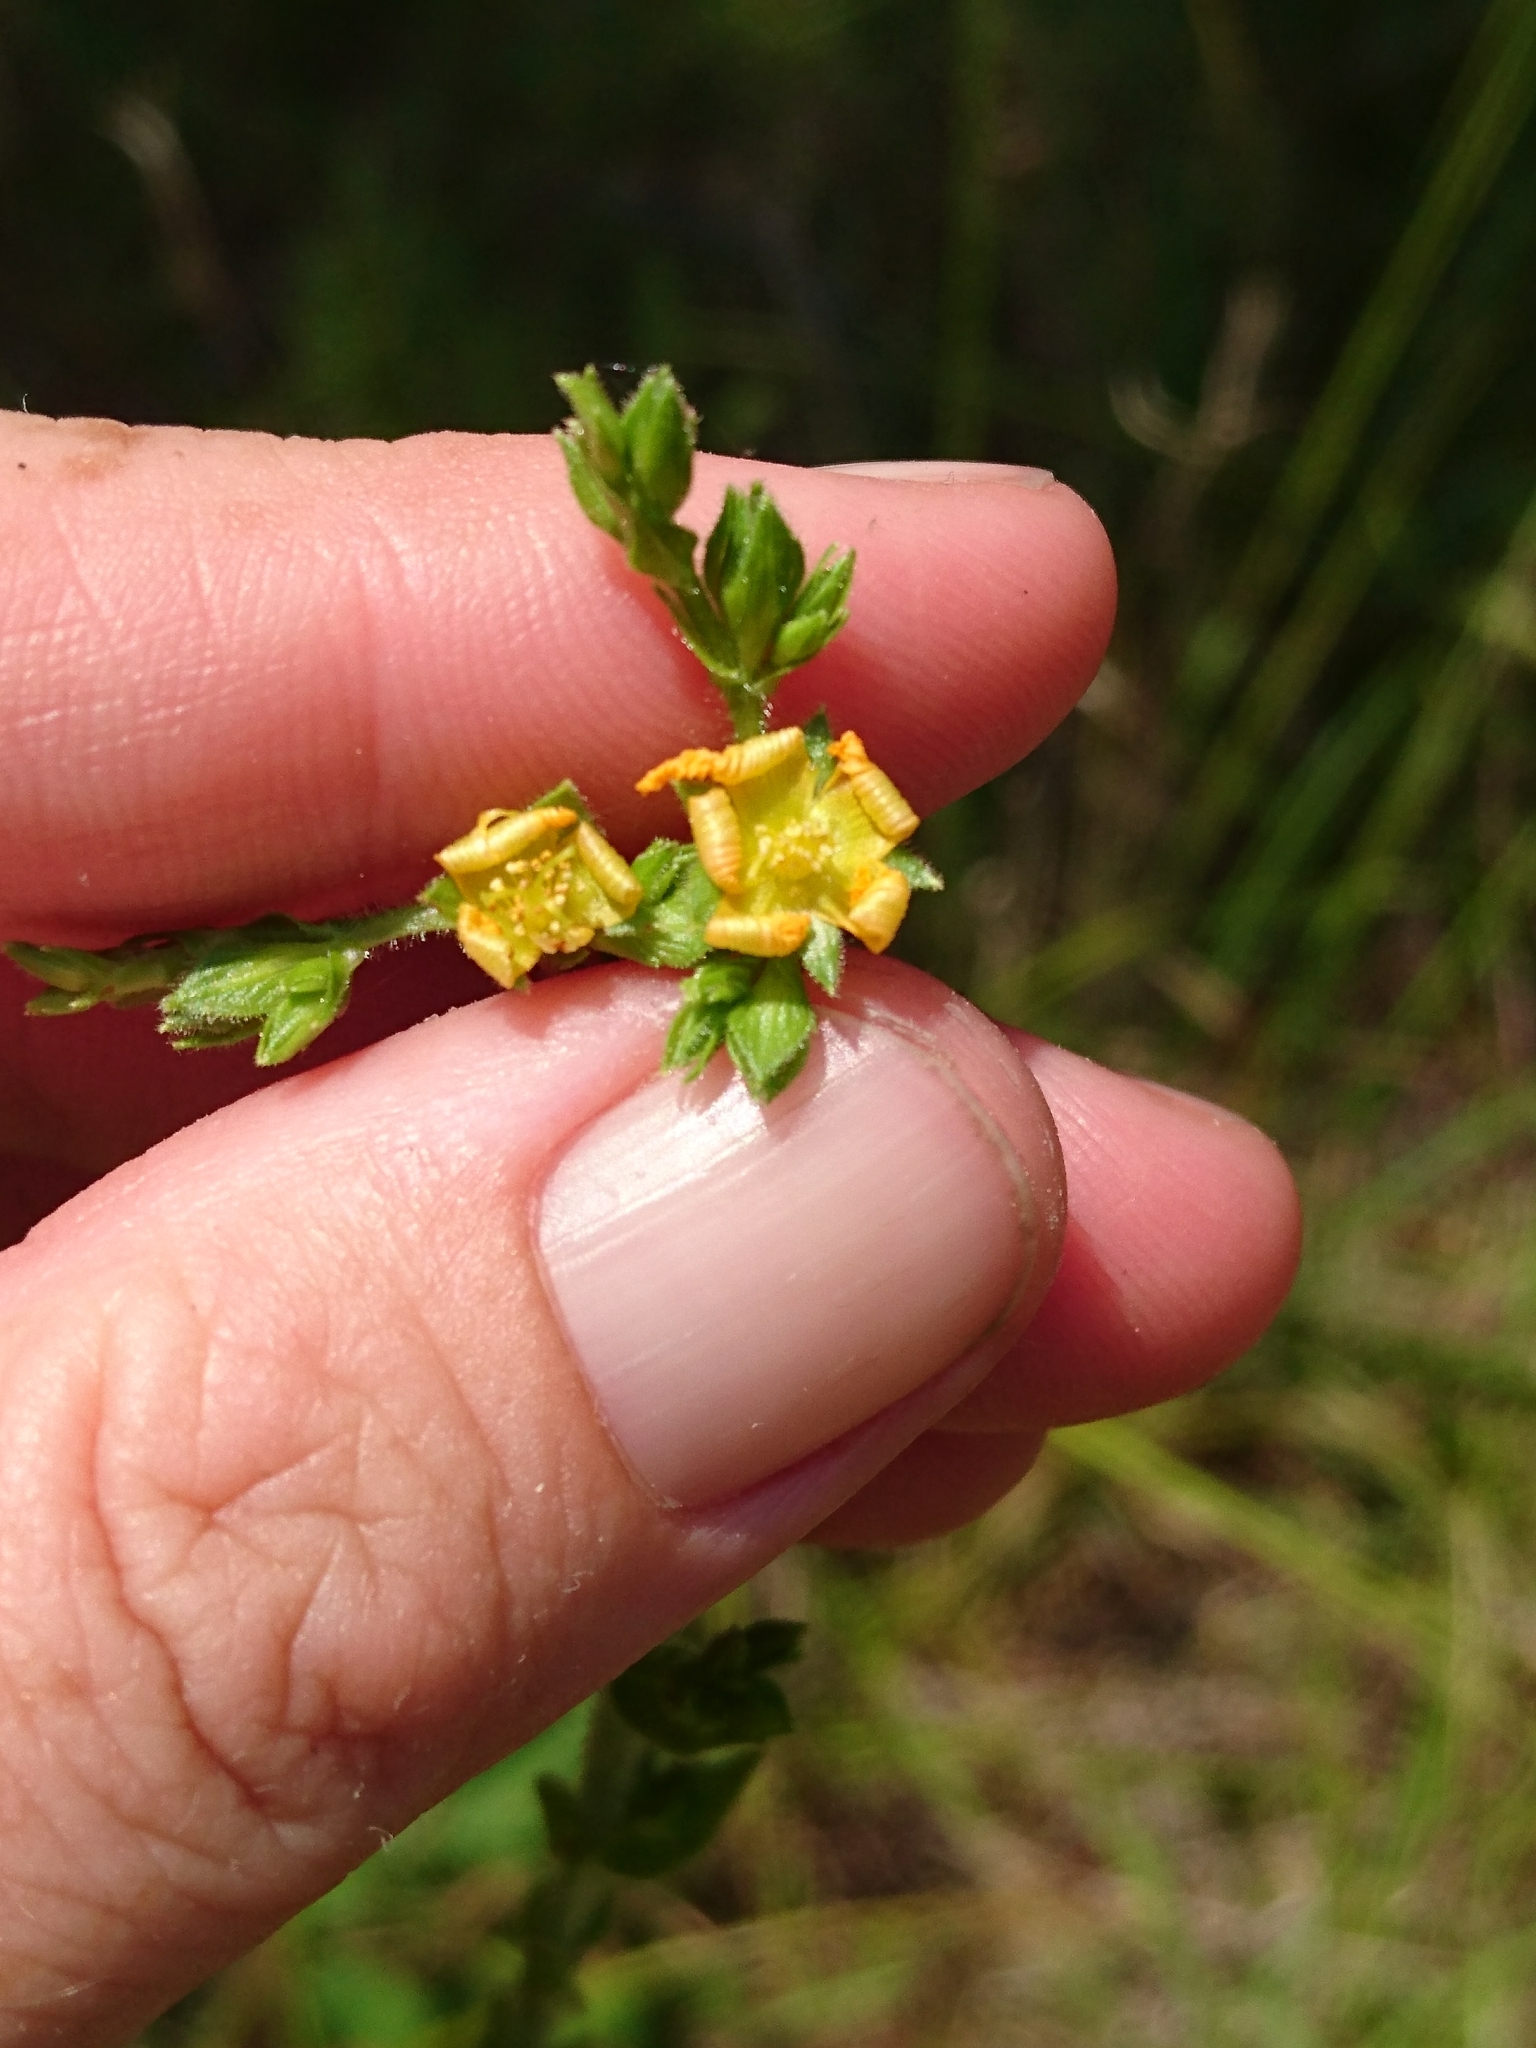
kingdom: Plantae
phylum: Tracheophyta
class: Magnoliopsida
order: Malpighiales
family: Hypericaceae
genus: Hypericum
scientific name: Hypericum setosum
